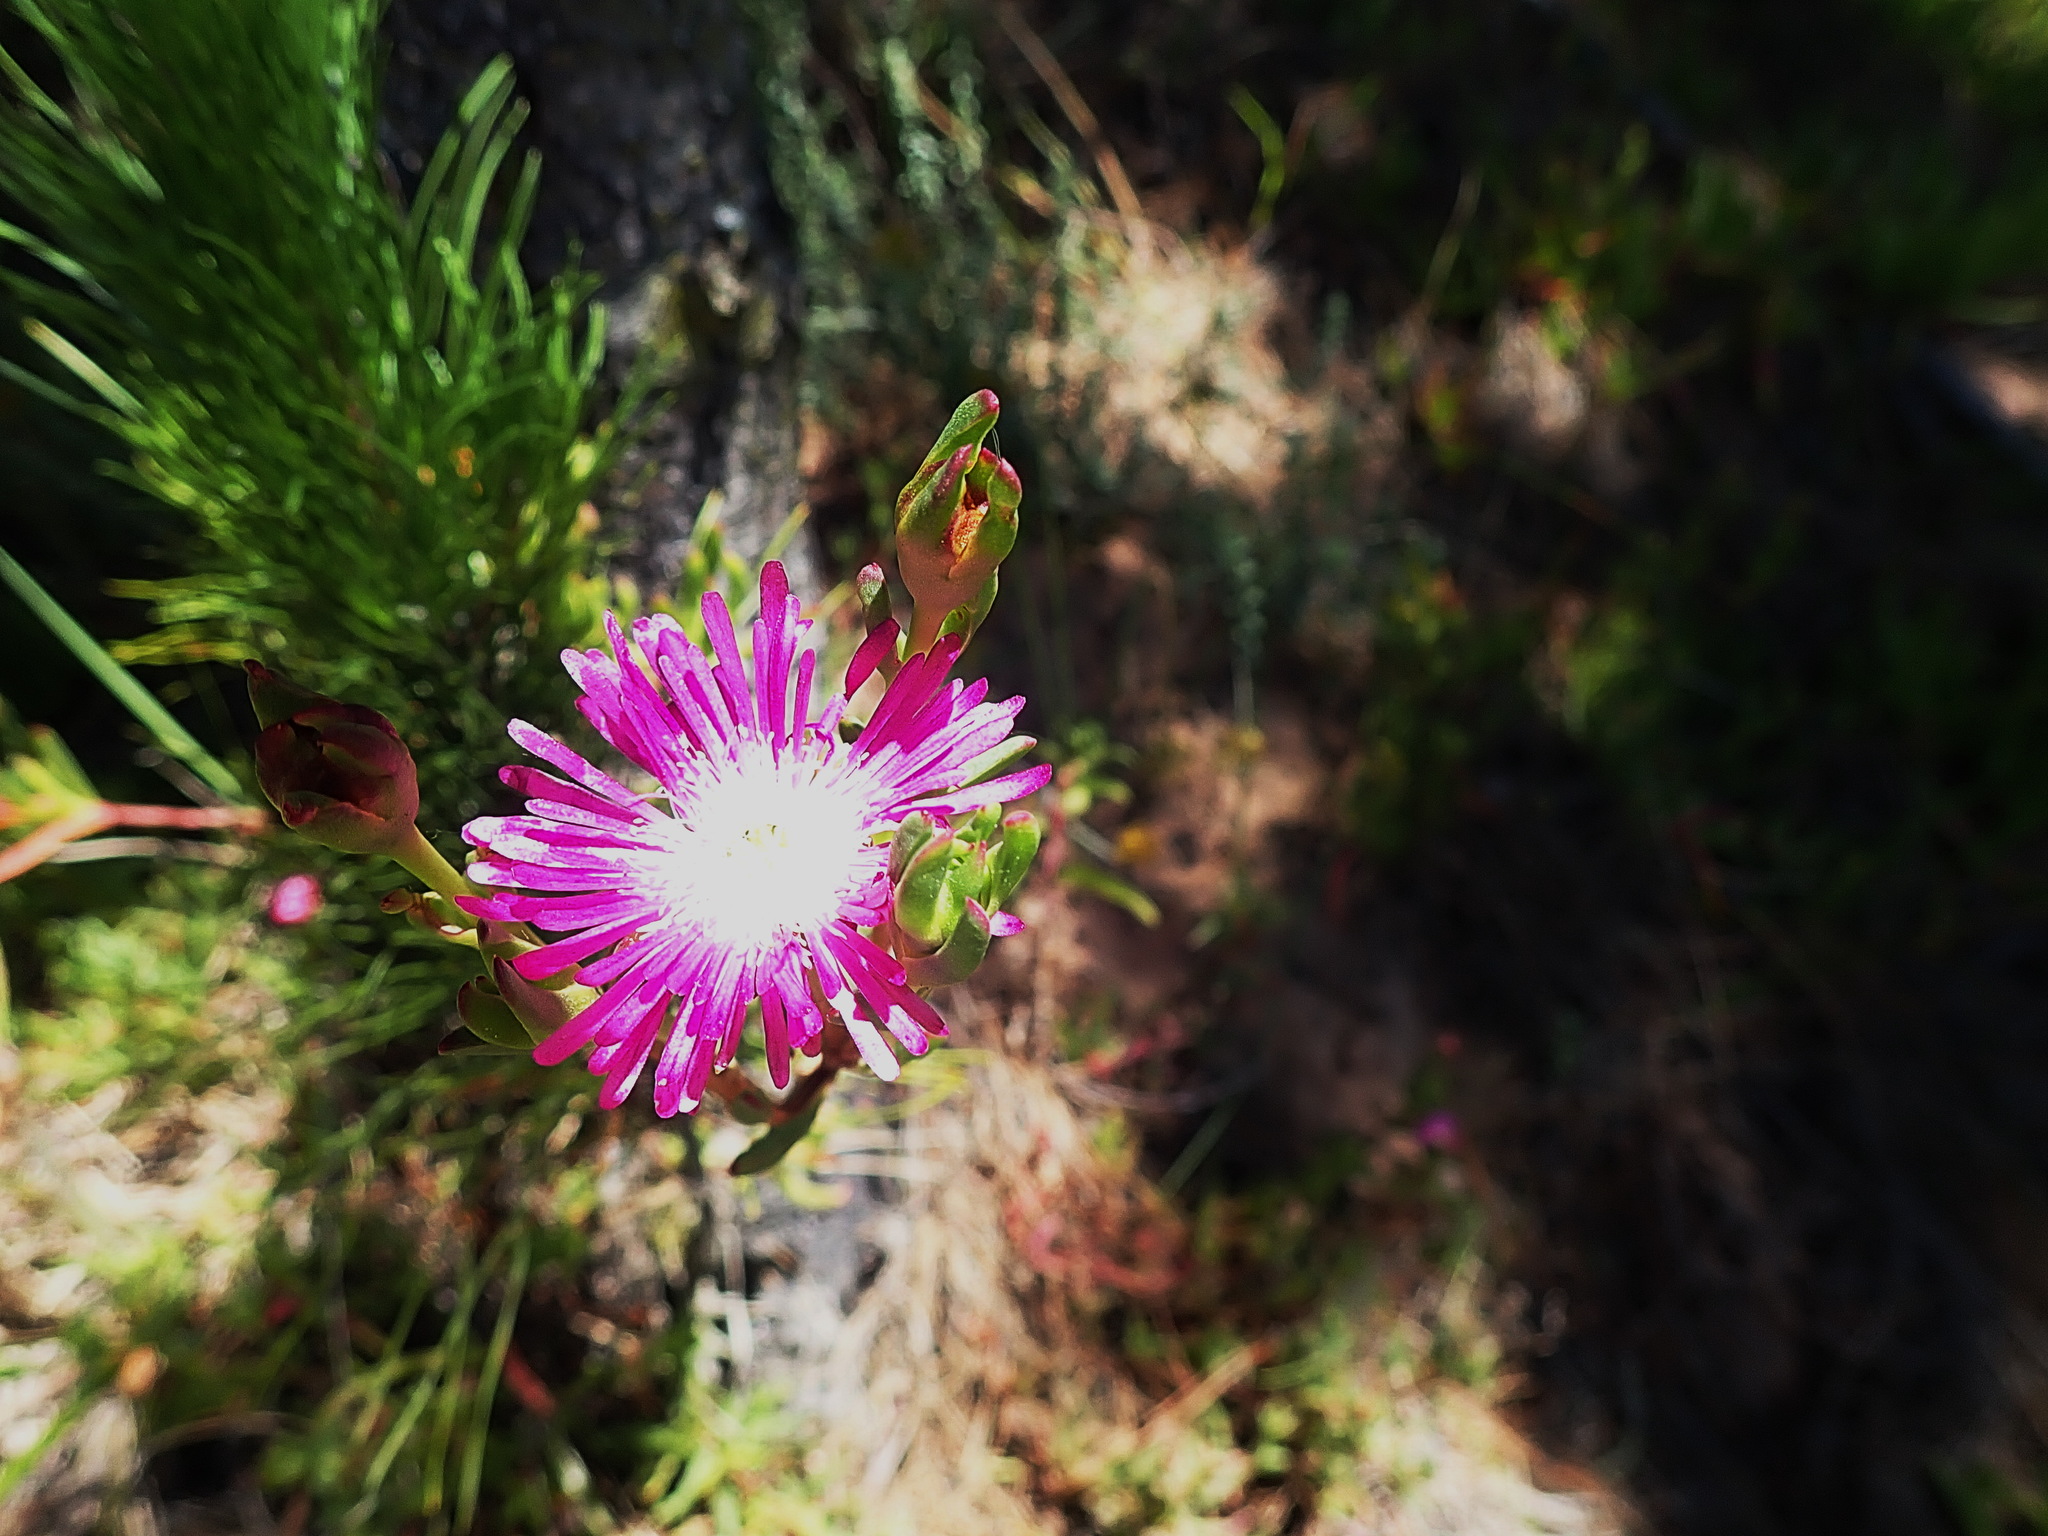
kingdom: Plantae
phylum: Tracheophyta
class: Magnoliopsida
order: Caryophyllales
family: Aizoaceae
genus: Ruschia
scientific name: Ruschia duthiae
